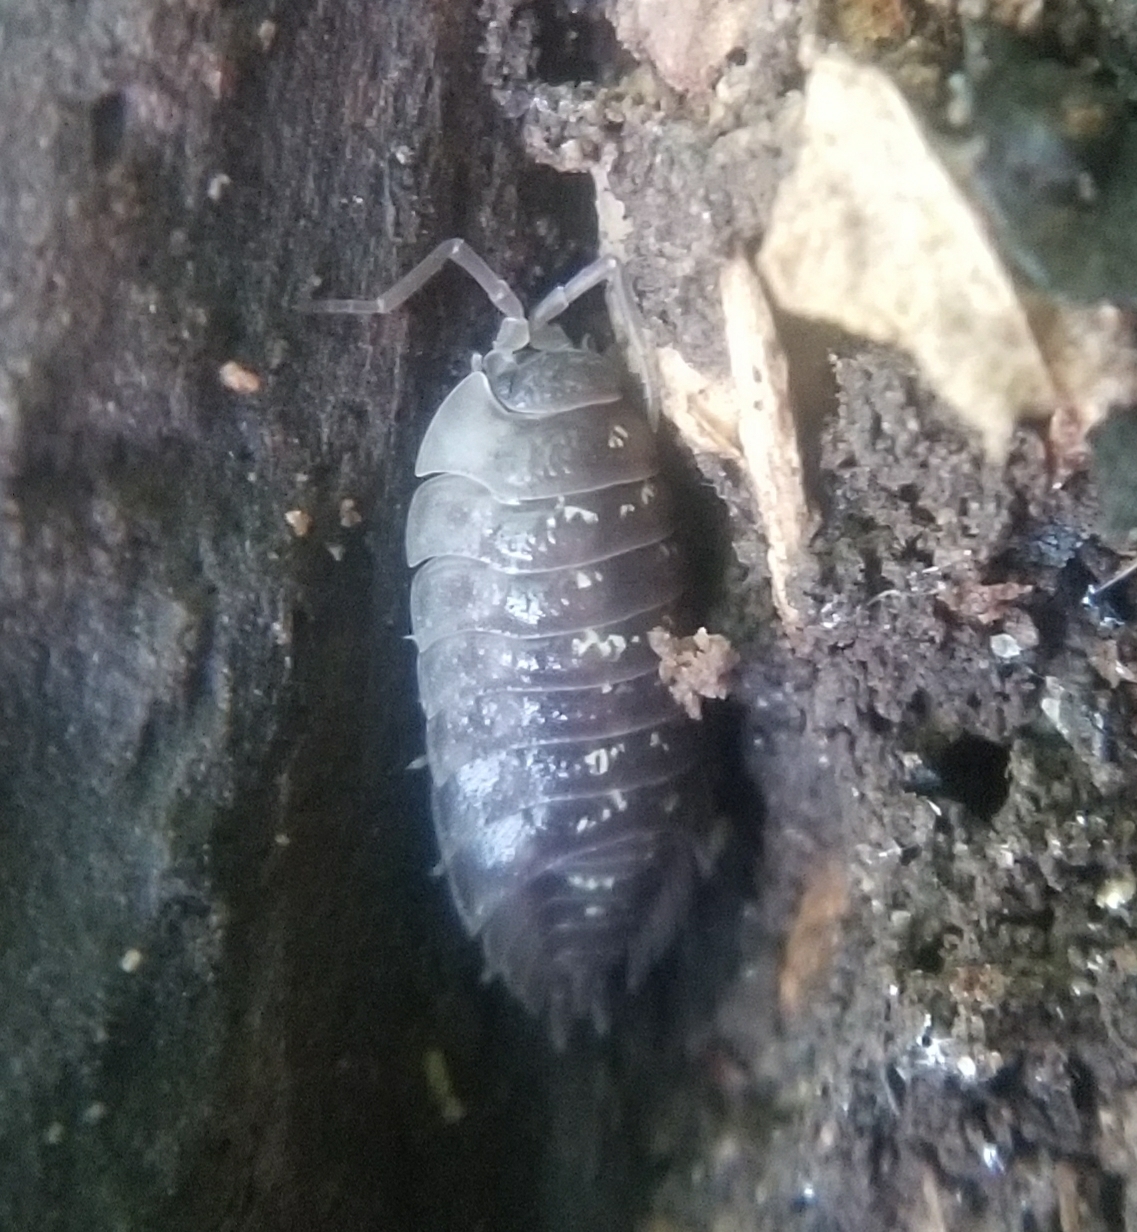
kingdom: Animalia
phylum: Arthropoda
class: Malacostraca
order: Isopoda
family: Oniscidae
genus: Oniscus
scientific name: Oniscus asellus
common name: Common shiny woodlouse
